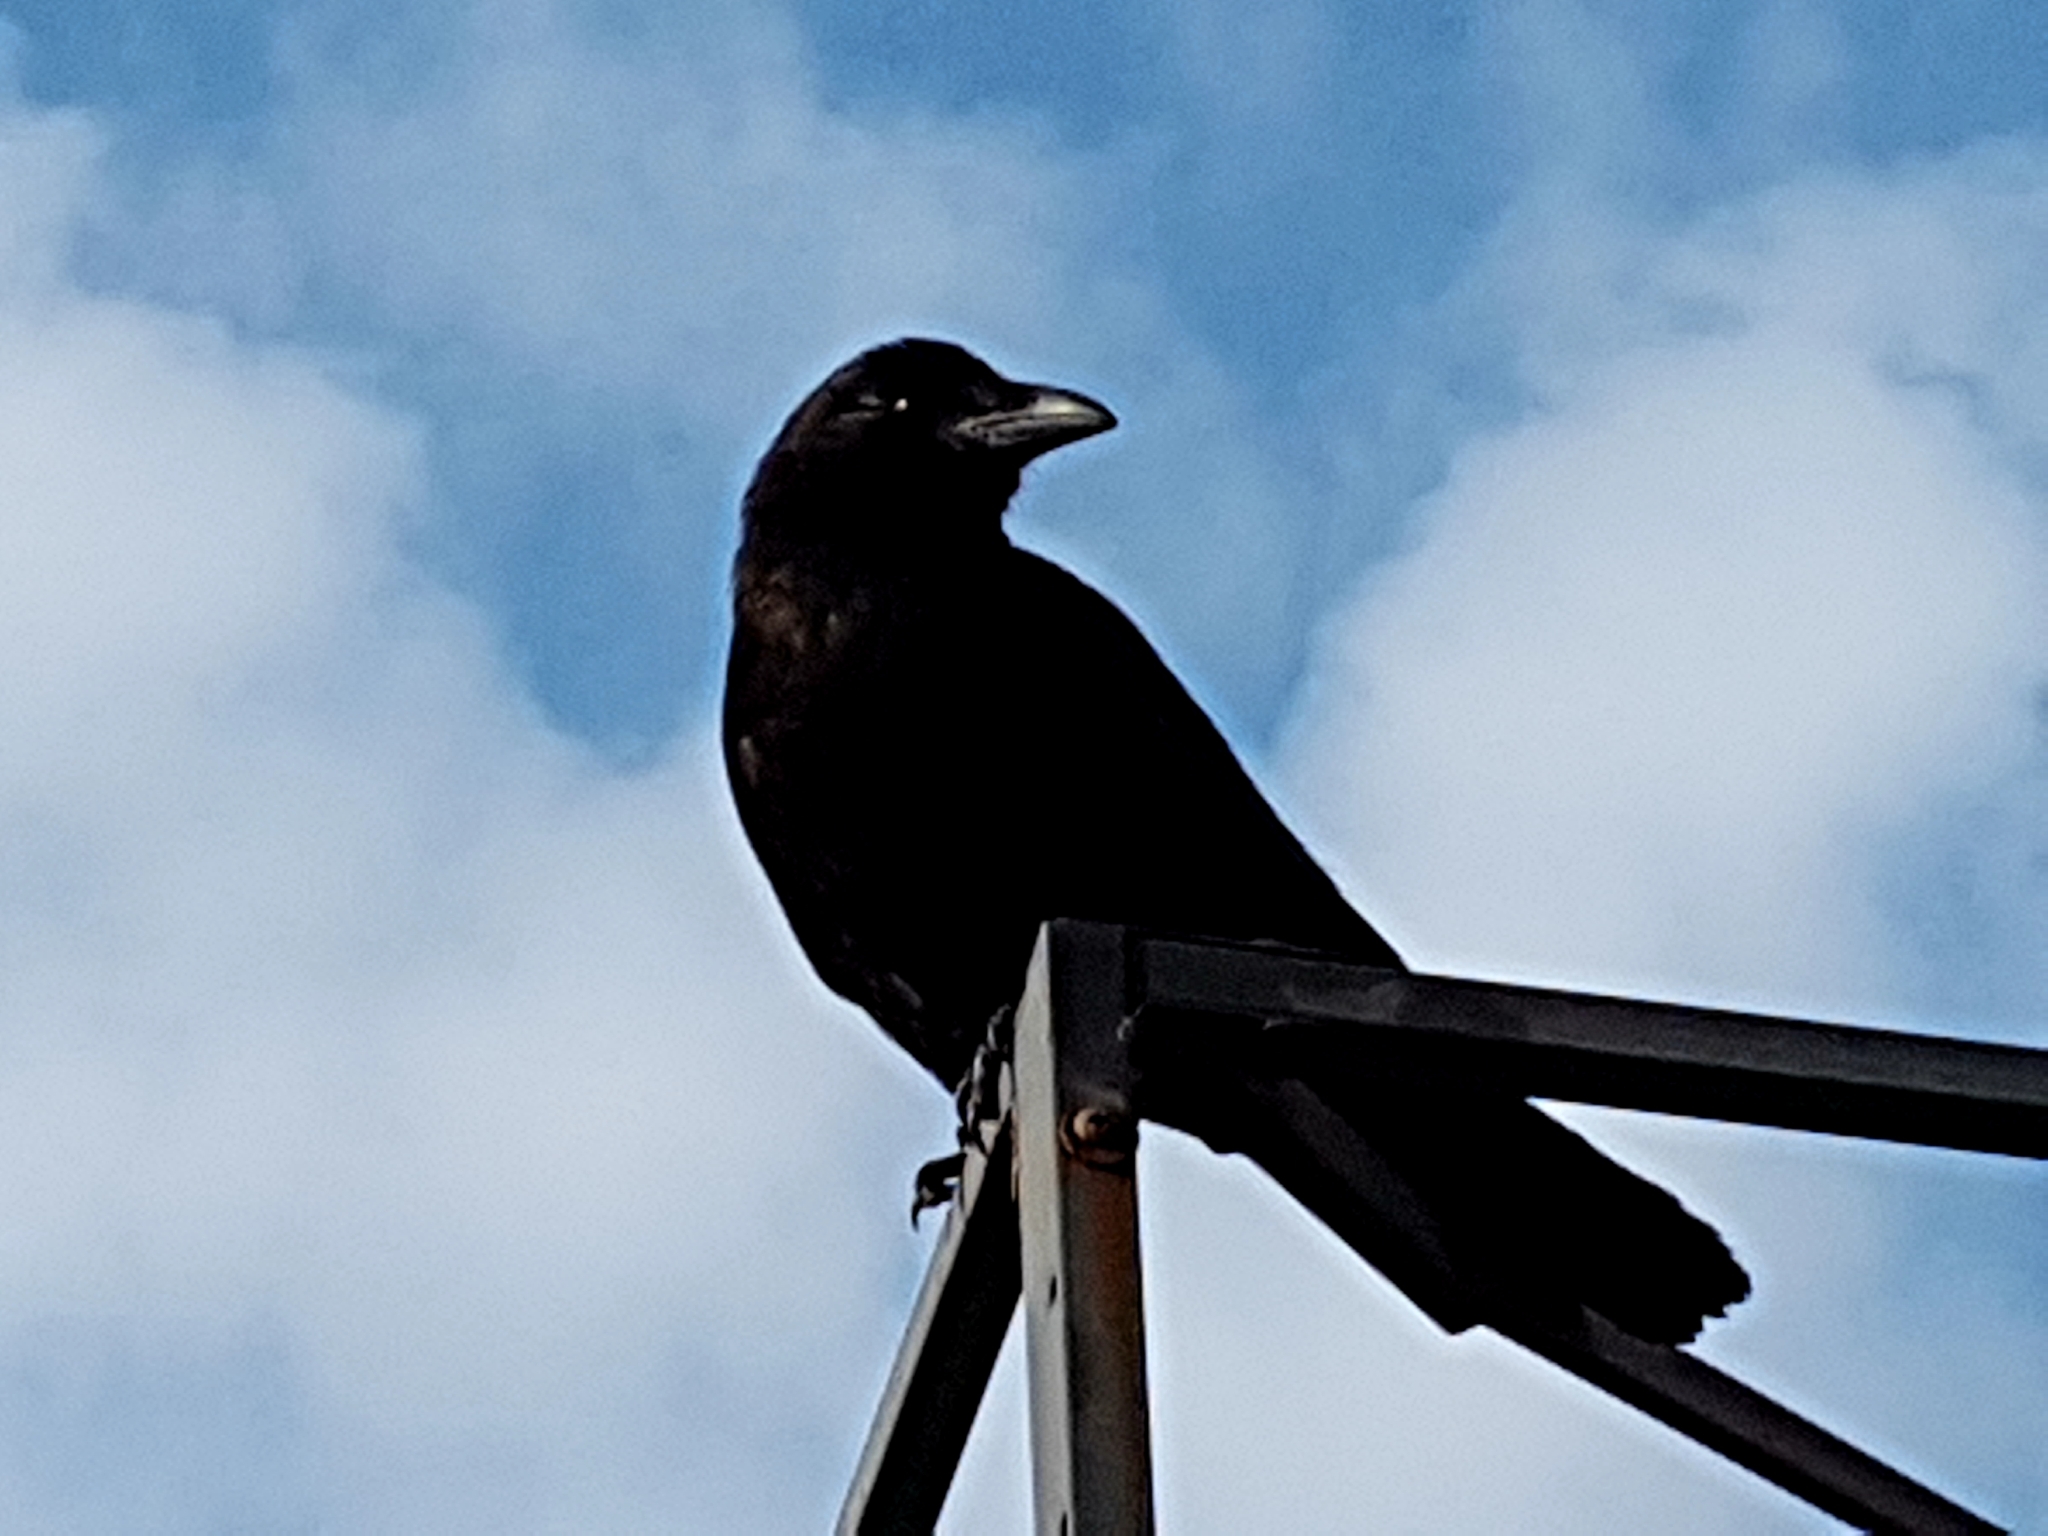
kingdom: Animalia
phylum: Chordata
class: Aves
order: Passeriformes
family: Corvidae
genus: Corvus
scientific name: Corvus brachyrhynchos
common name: American crow
